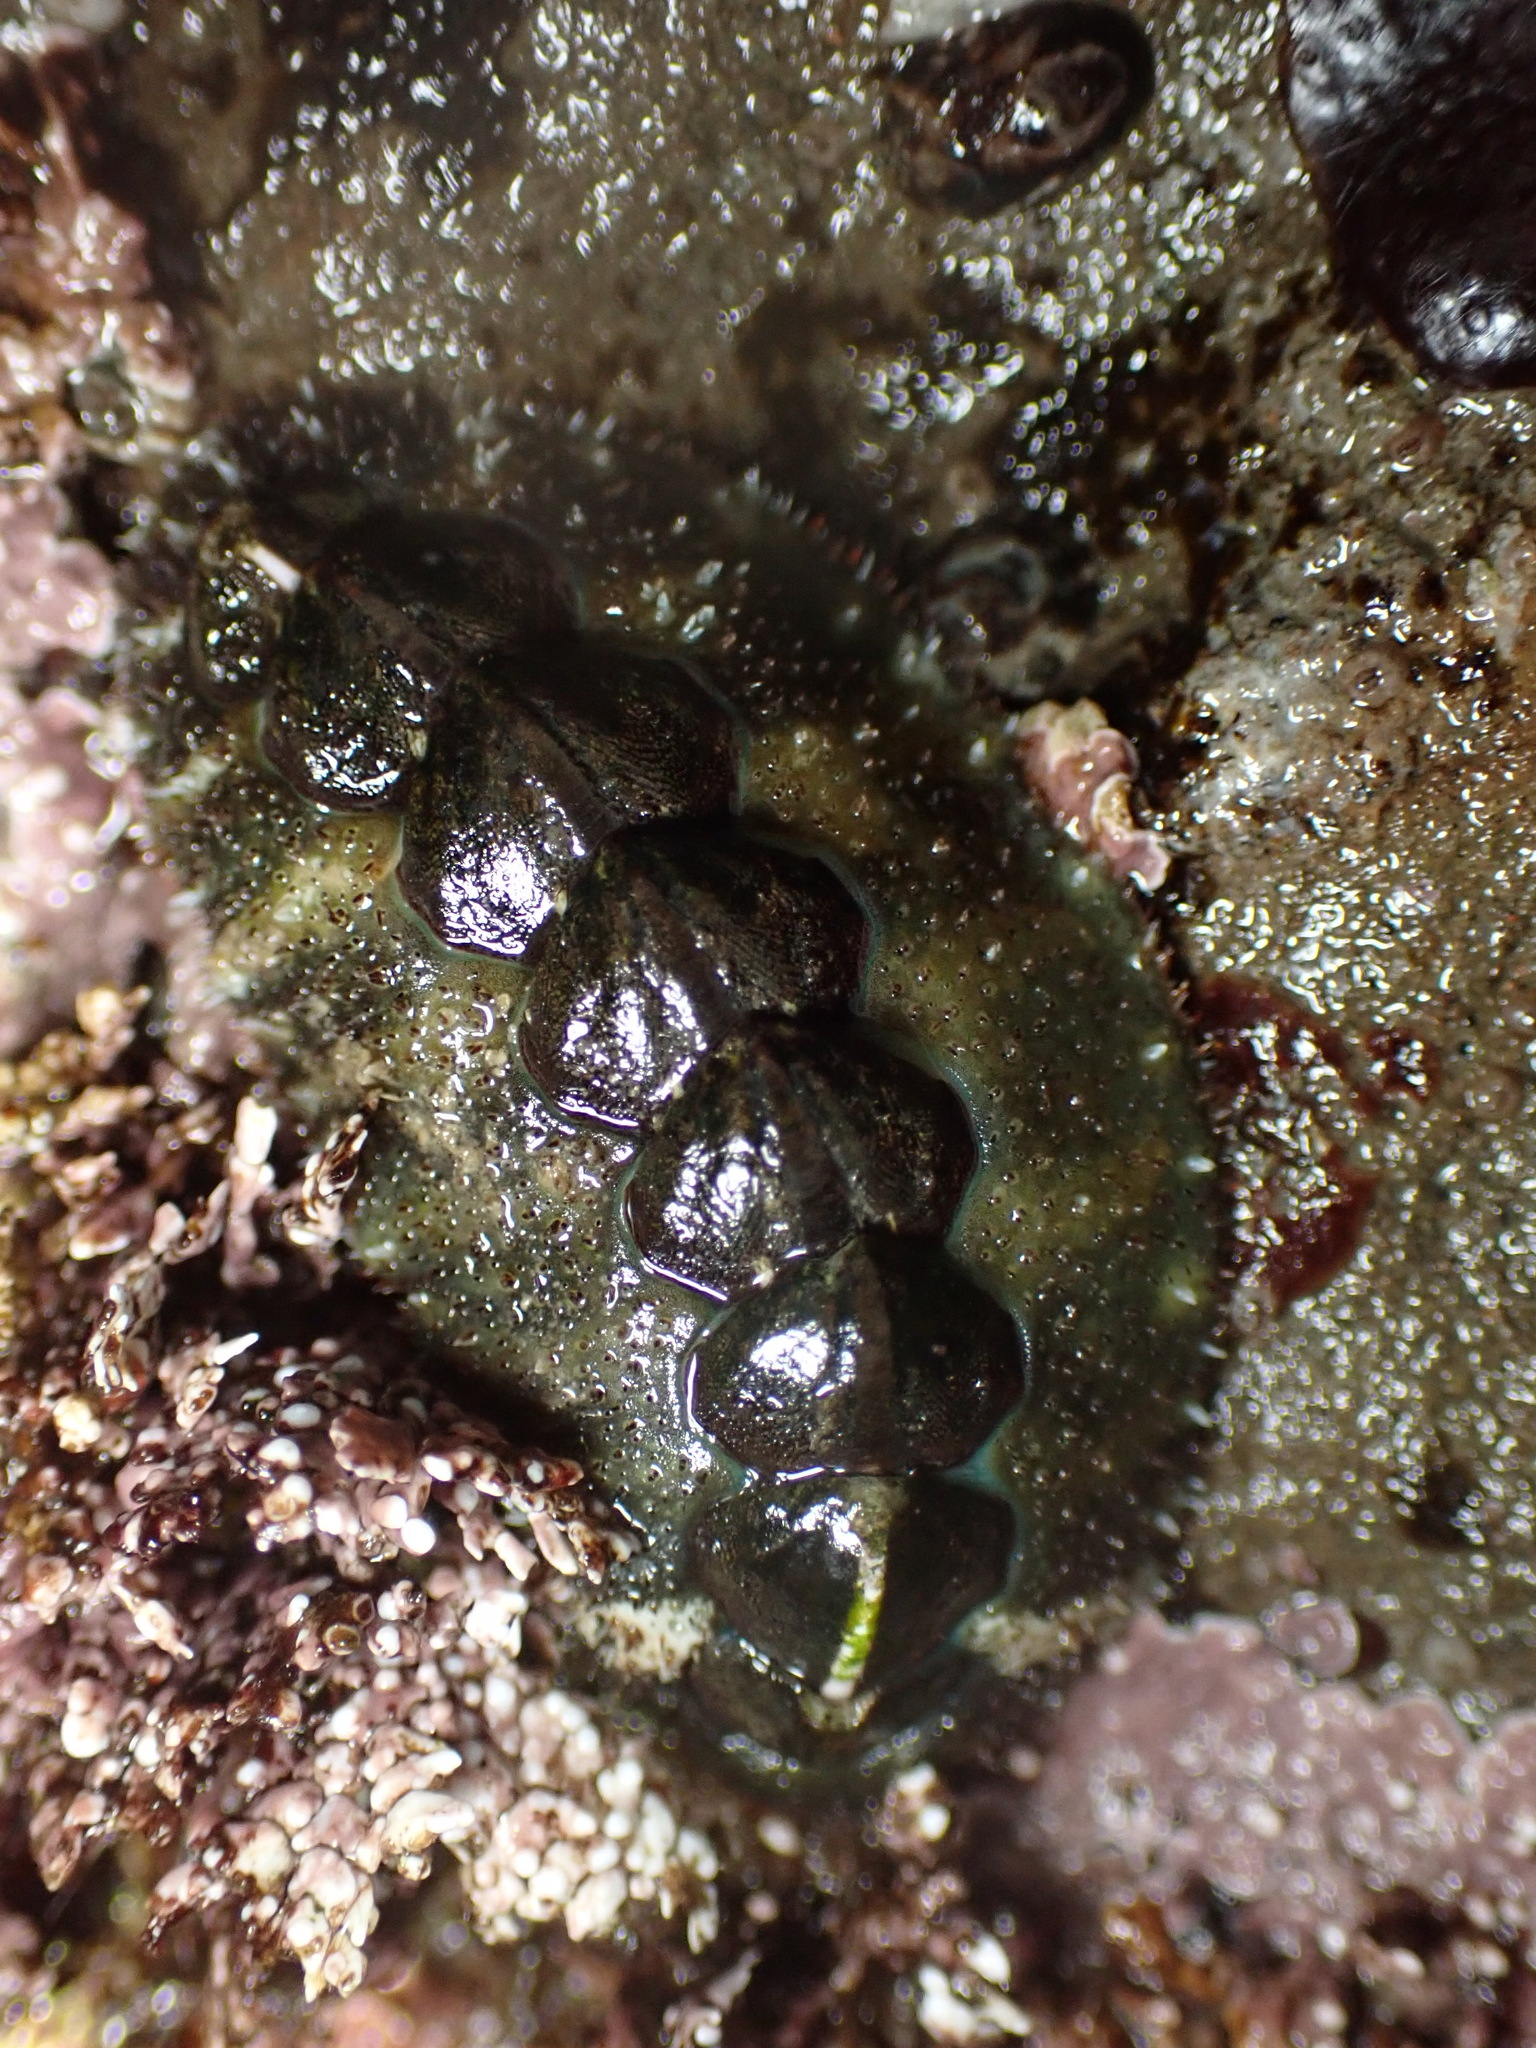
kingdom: Animalia
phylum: Mollusca
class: Polyplacophora
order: Chitonida
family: Tonicellidae
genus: Nuttallina
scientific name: Nuttallina californica
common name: California nuttall chiton
